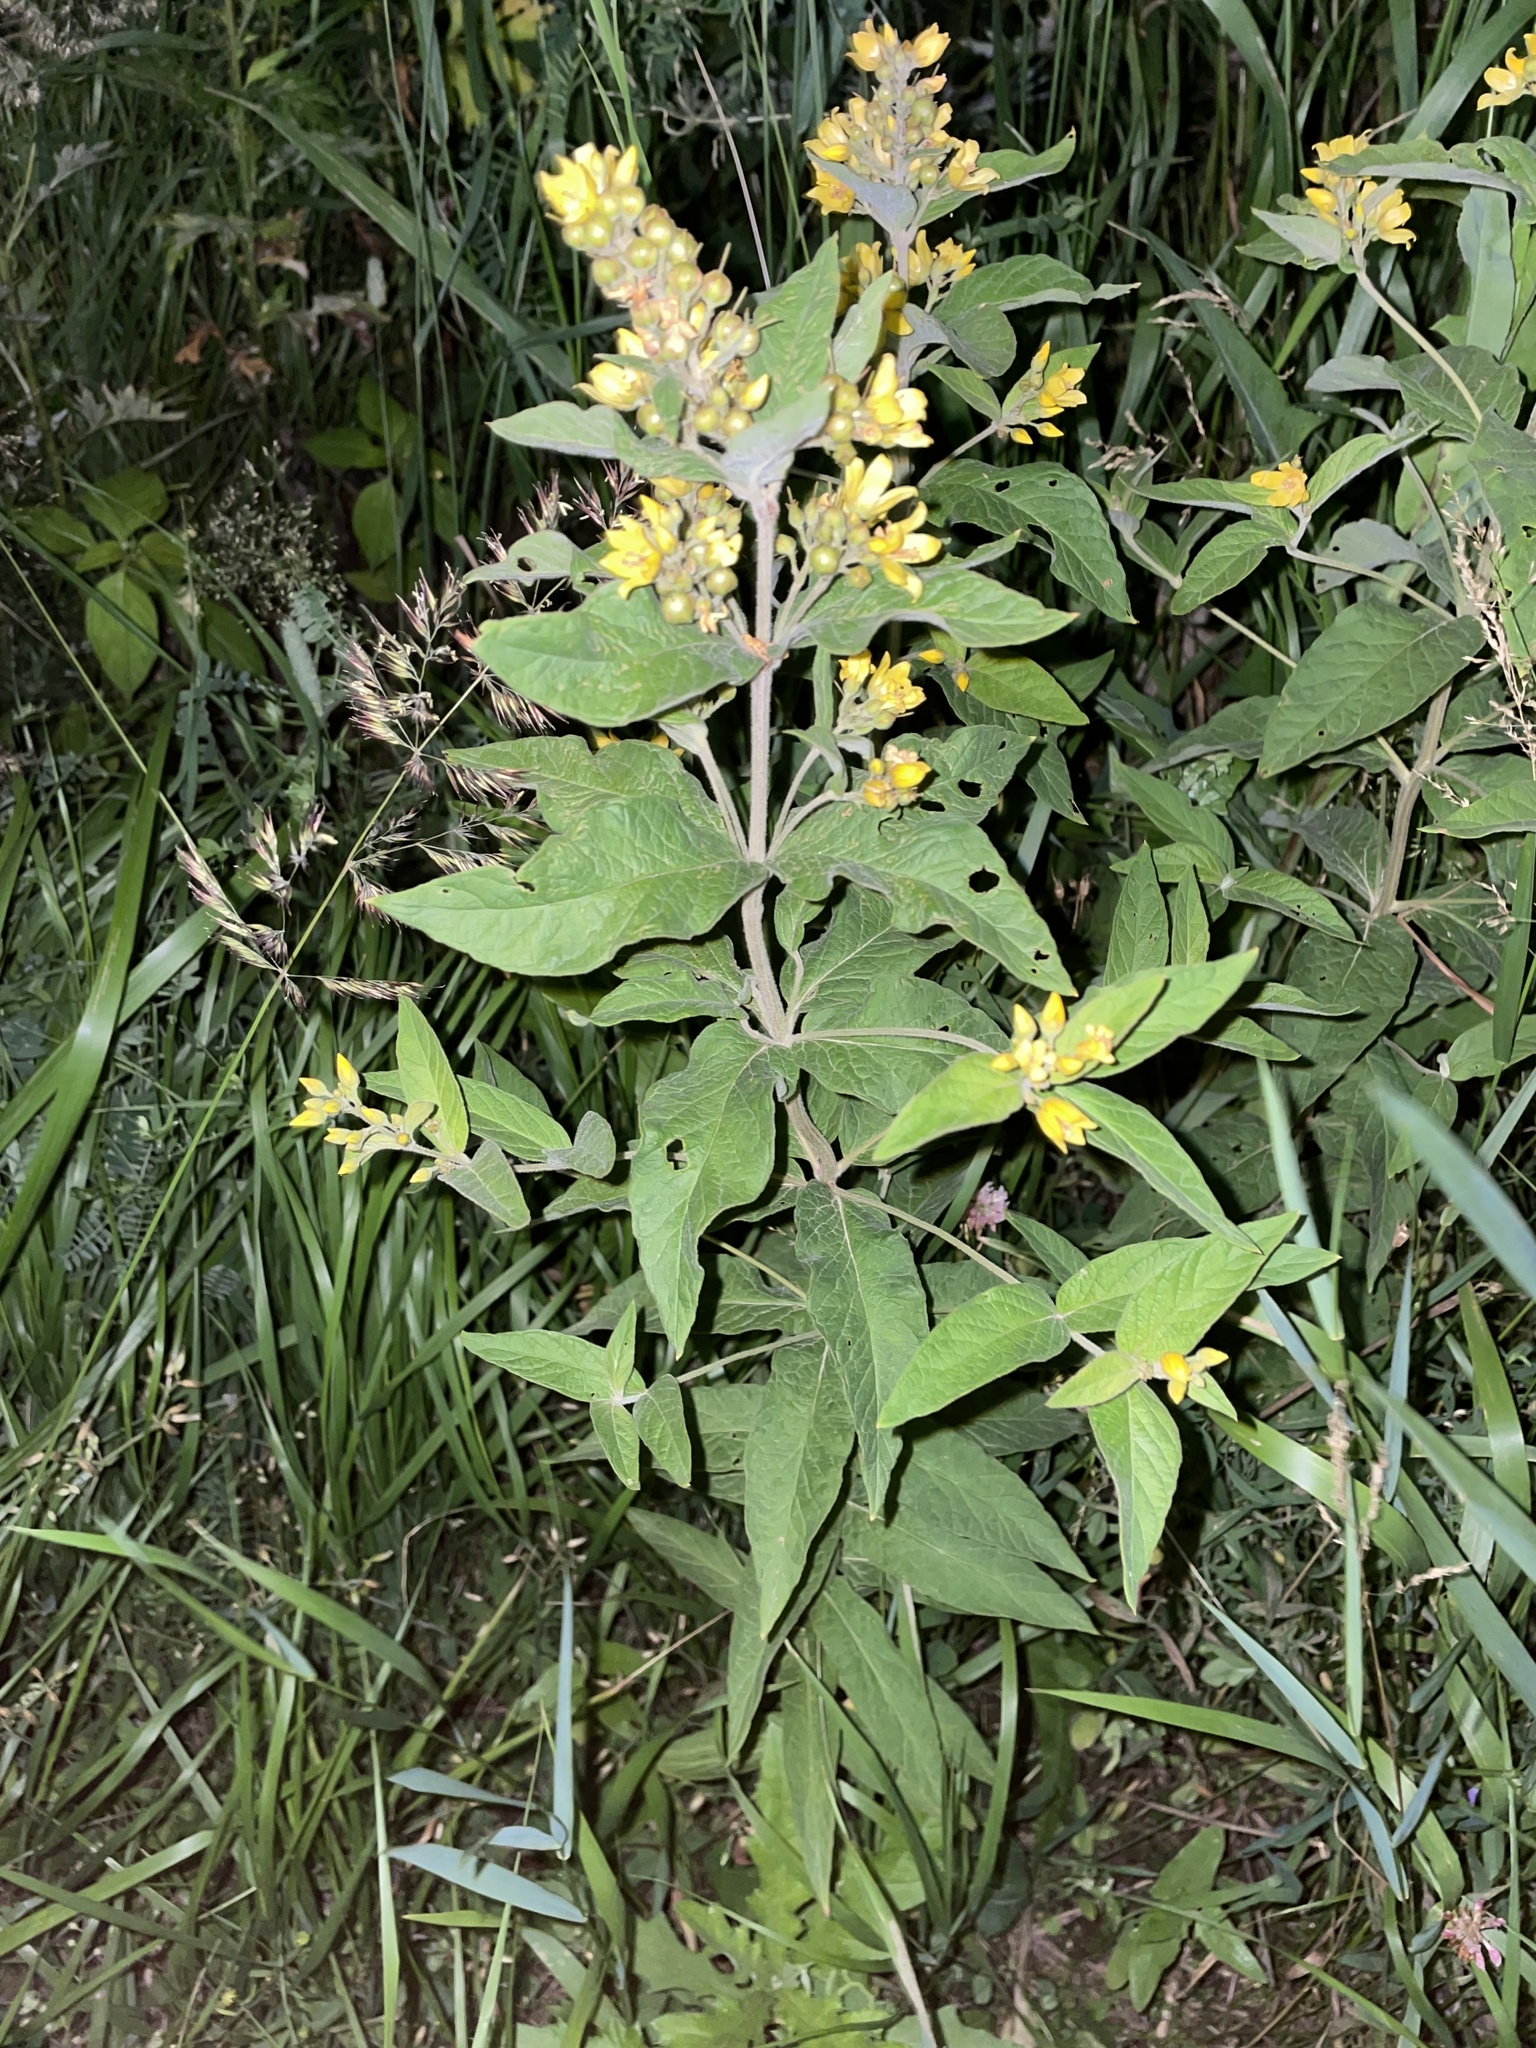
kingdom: Plantae
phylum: Tracheophyta
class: Magnoliopsida
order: Ericales
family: Primulaceae
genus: Lysimachia
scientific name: Lysimachia vulgaris
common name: Yellow loosestrife
